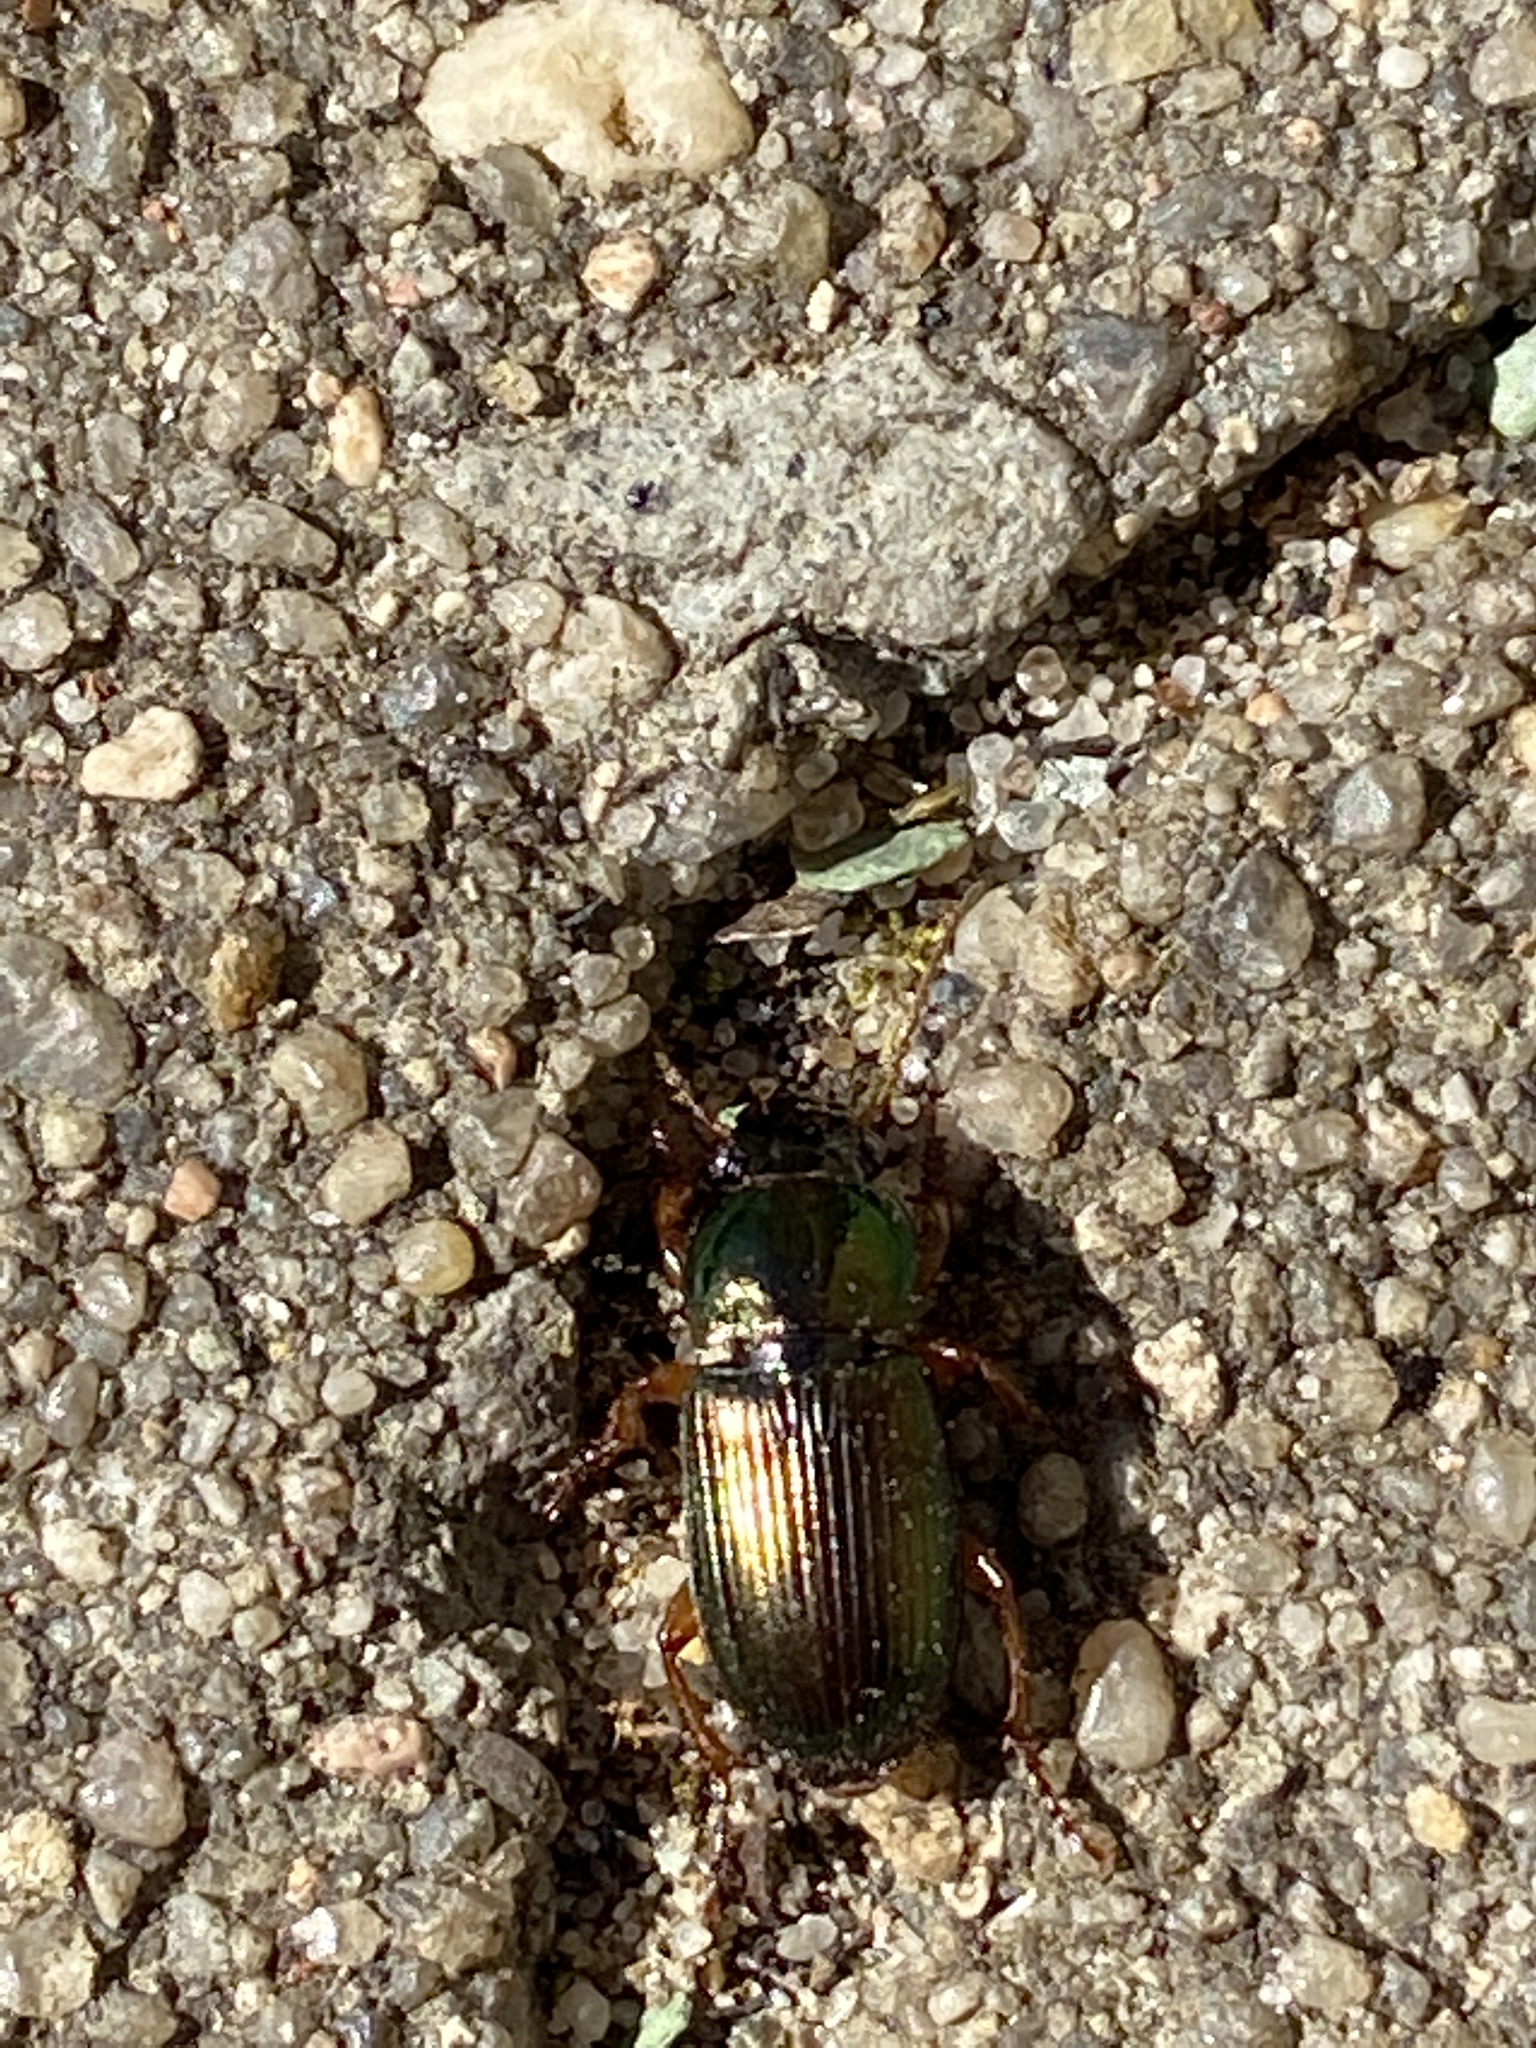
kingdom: Animalia
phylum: Arthropoda
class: Insecta
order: Coleoptera
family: Carabidae
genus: Harpalus
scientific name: Harpalus affinis
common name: Polychrome harp ground beetle
